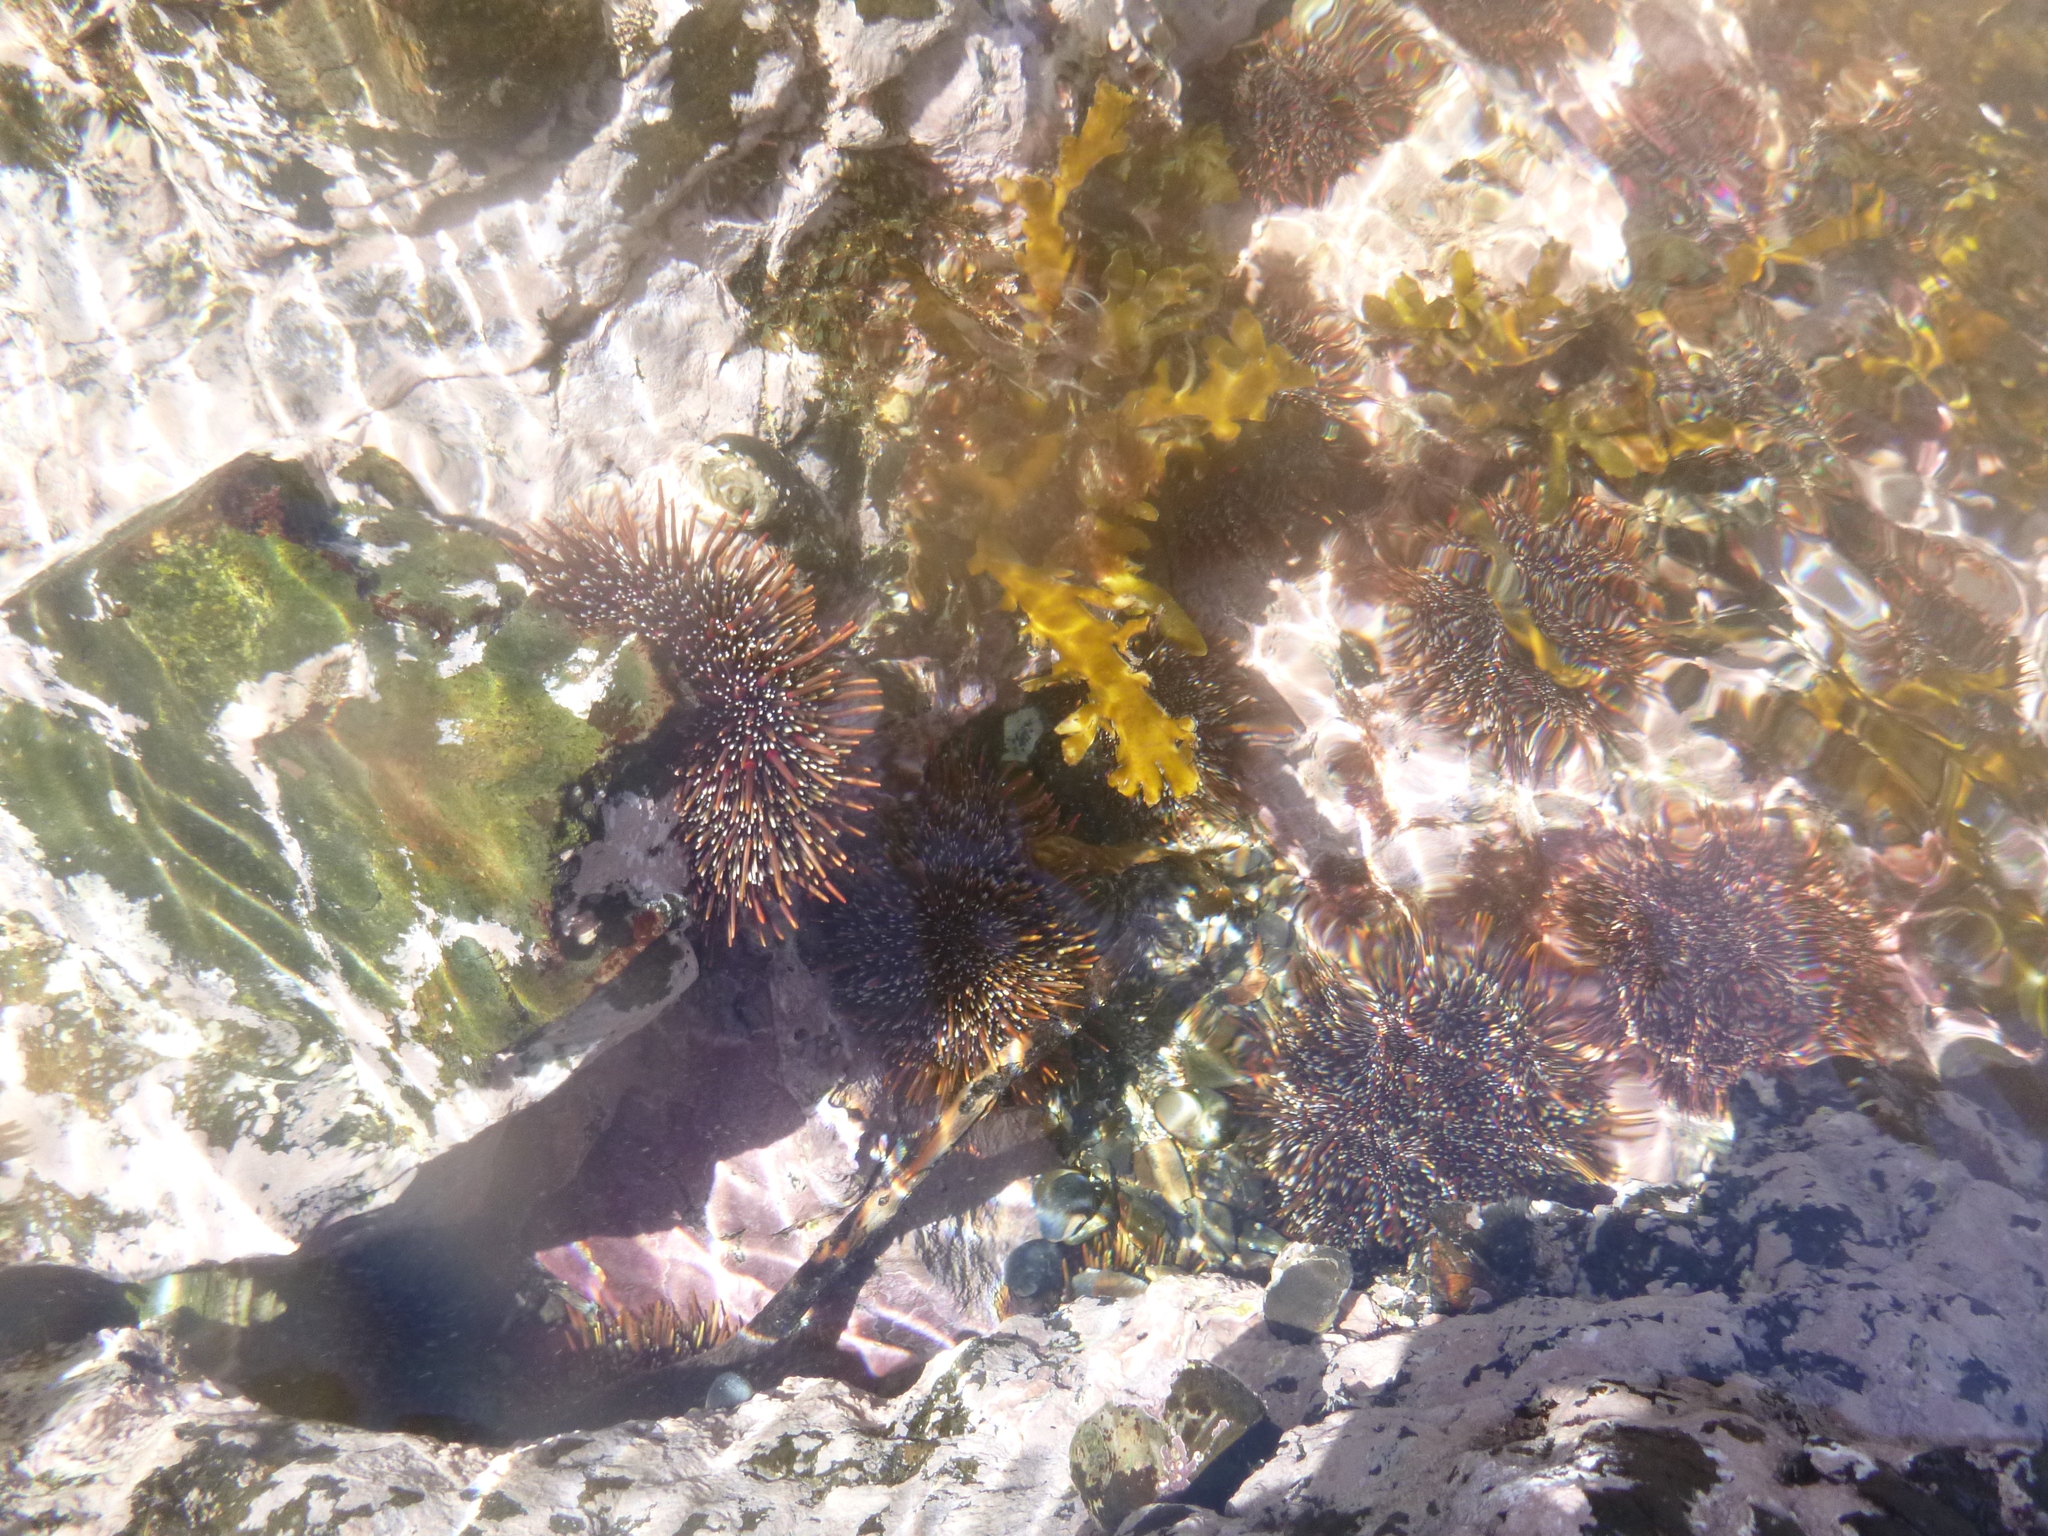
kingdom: Animalia
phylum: Echinodermata
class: Echinoidea
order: Camarodonta
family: Echinometridae
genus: Evechinus
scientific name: Evechinus chloroticus
